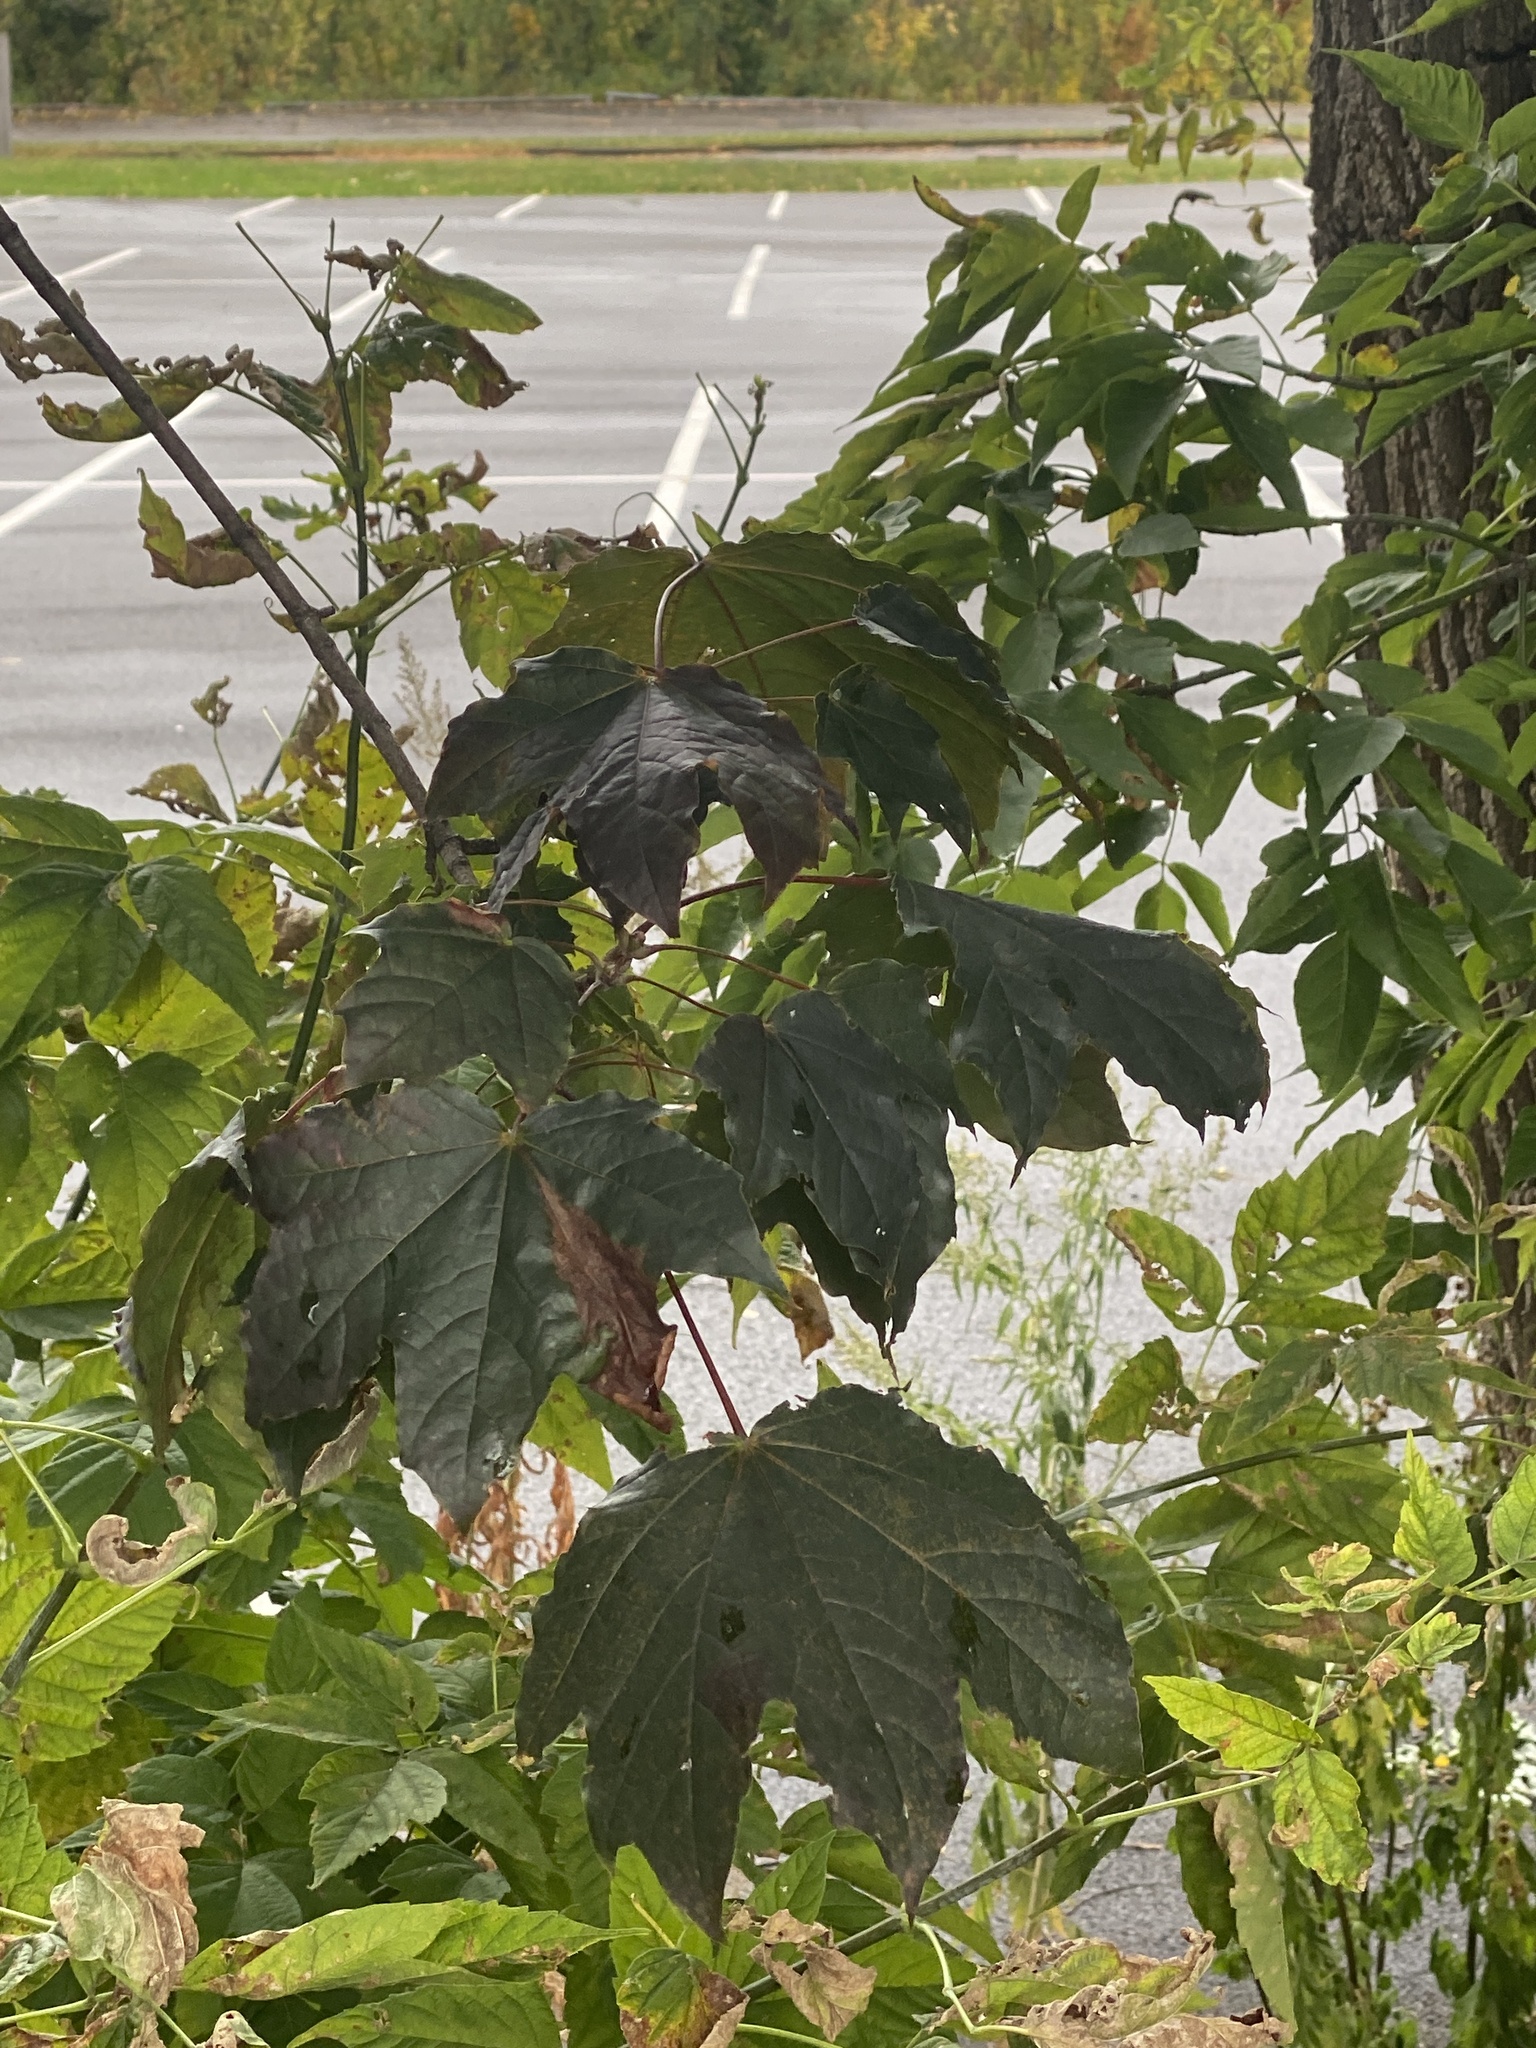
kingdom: Plantae
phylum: Tracheophyta
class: Magnoliopsida
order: Sapindales
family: Sapindaceae
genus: Acer
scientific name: Acer platanoides
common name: Norway maple
